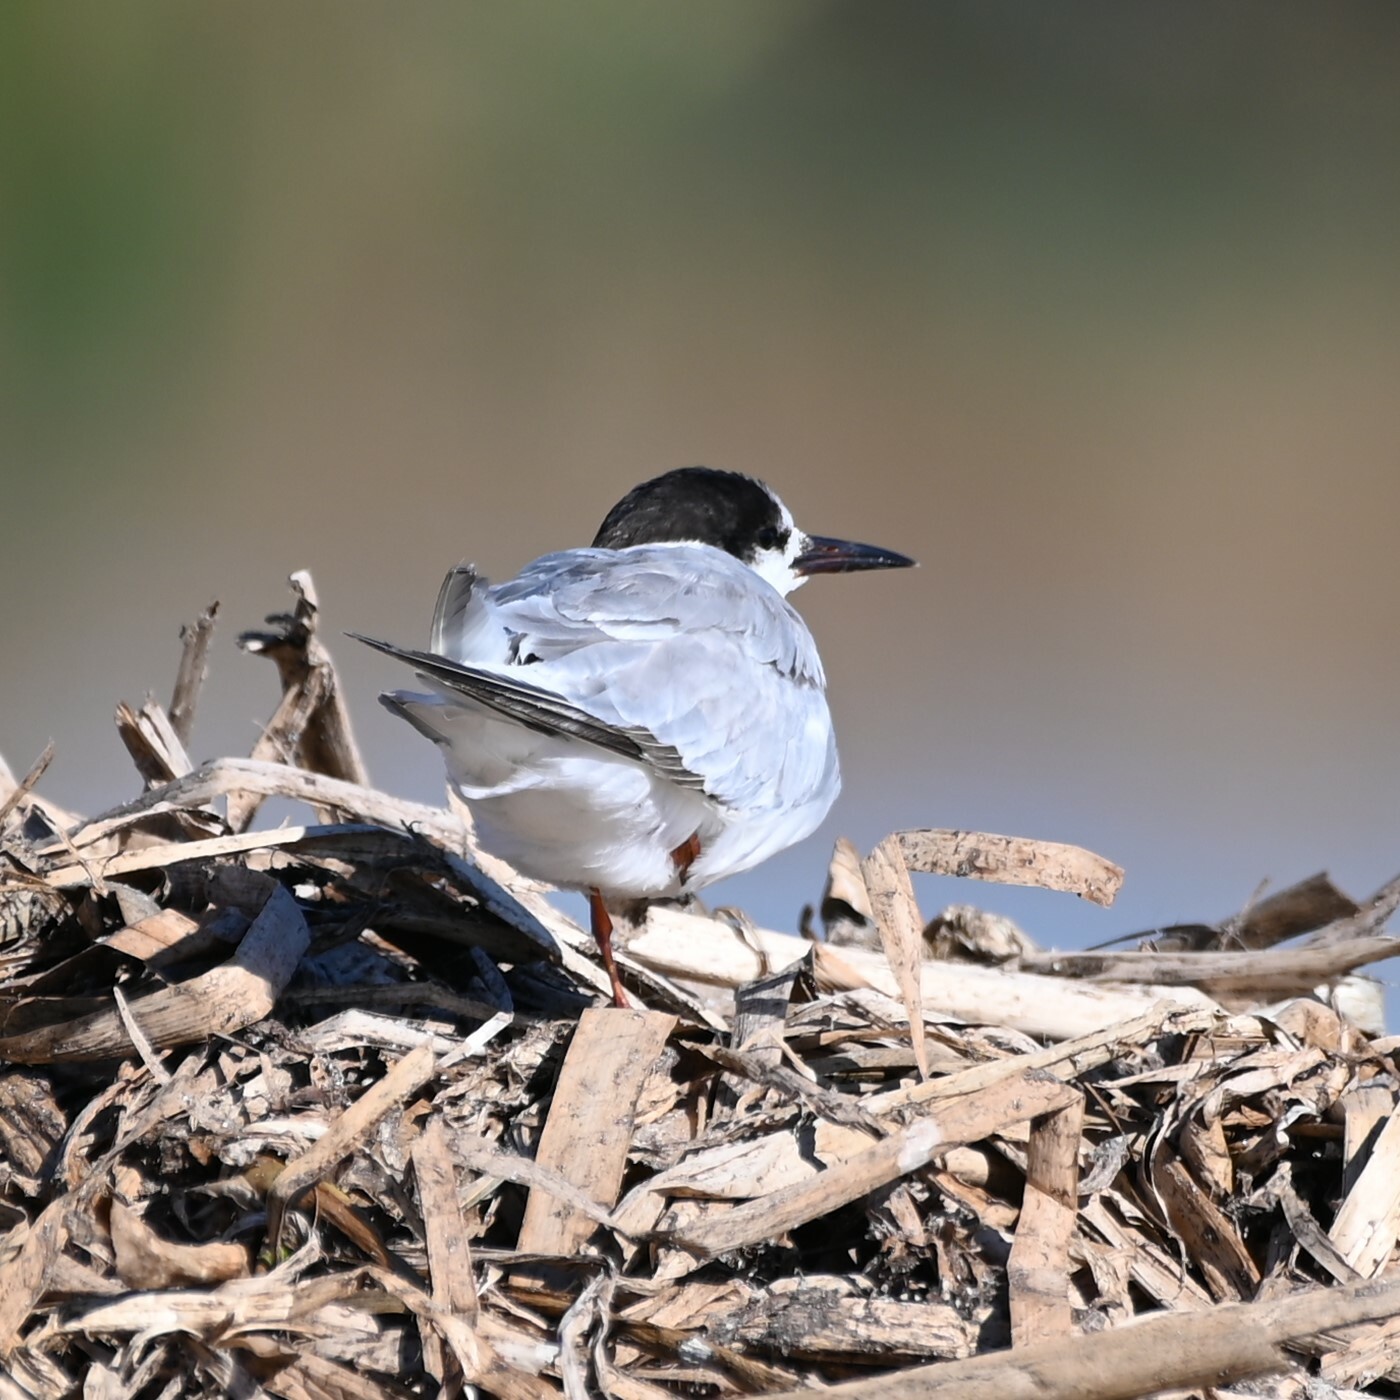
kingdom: Animalia
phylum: Chordata
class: Aves
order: Charadriiformes
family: Laridae
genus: Sterna
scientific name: Sterna hirundo
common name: Common tern
